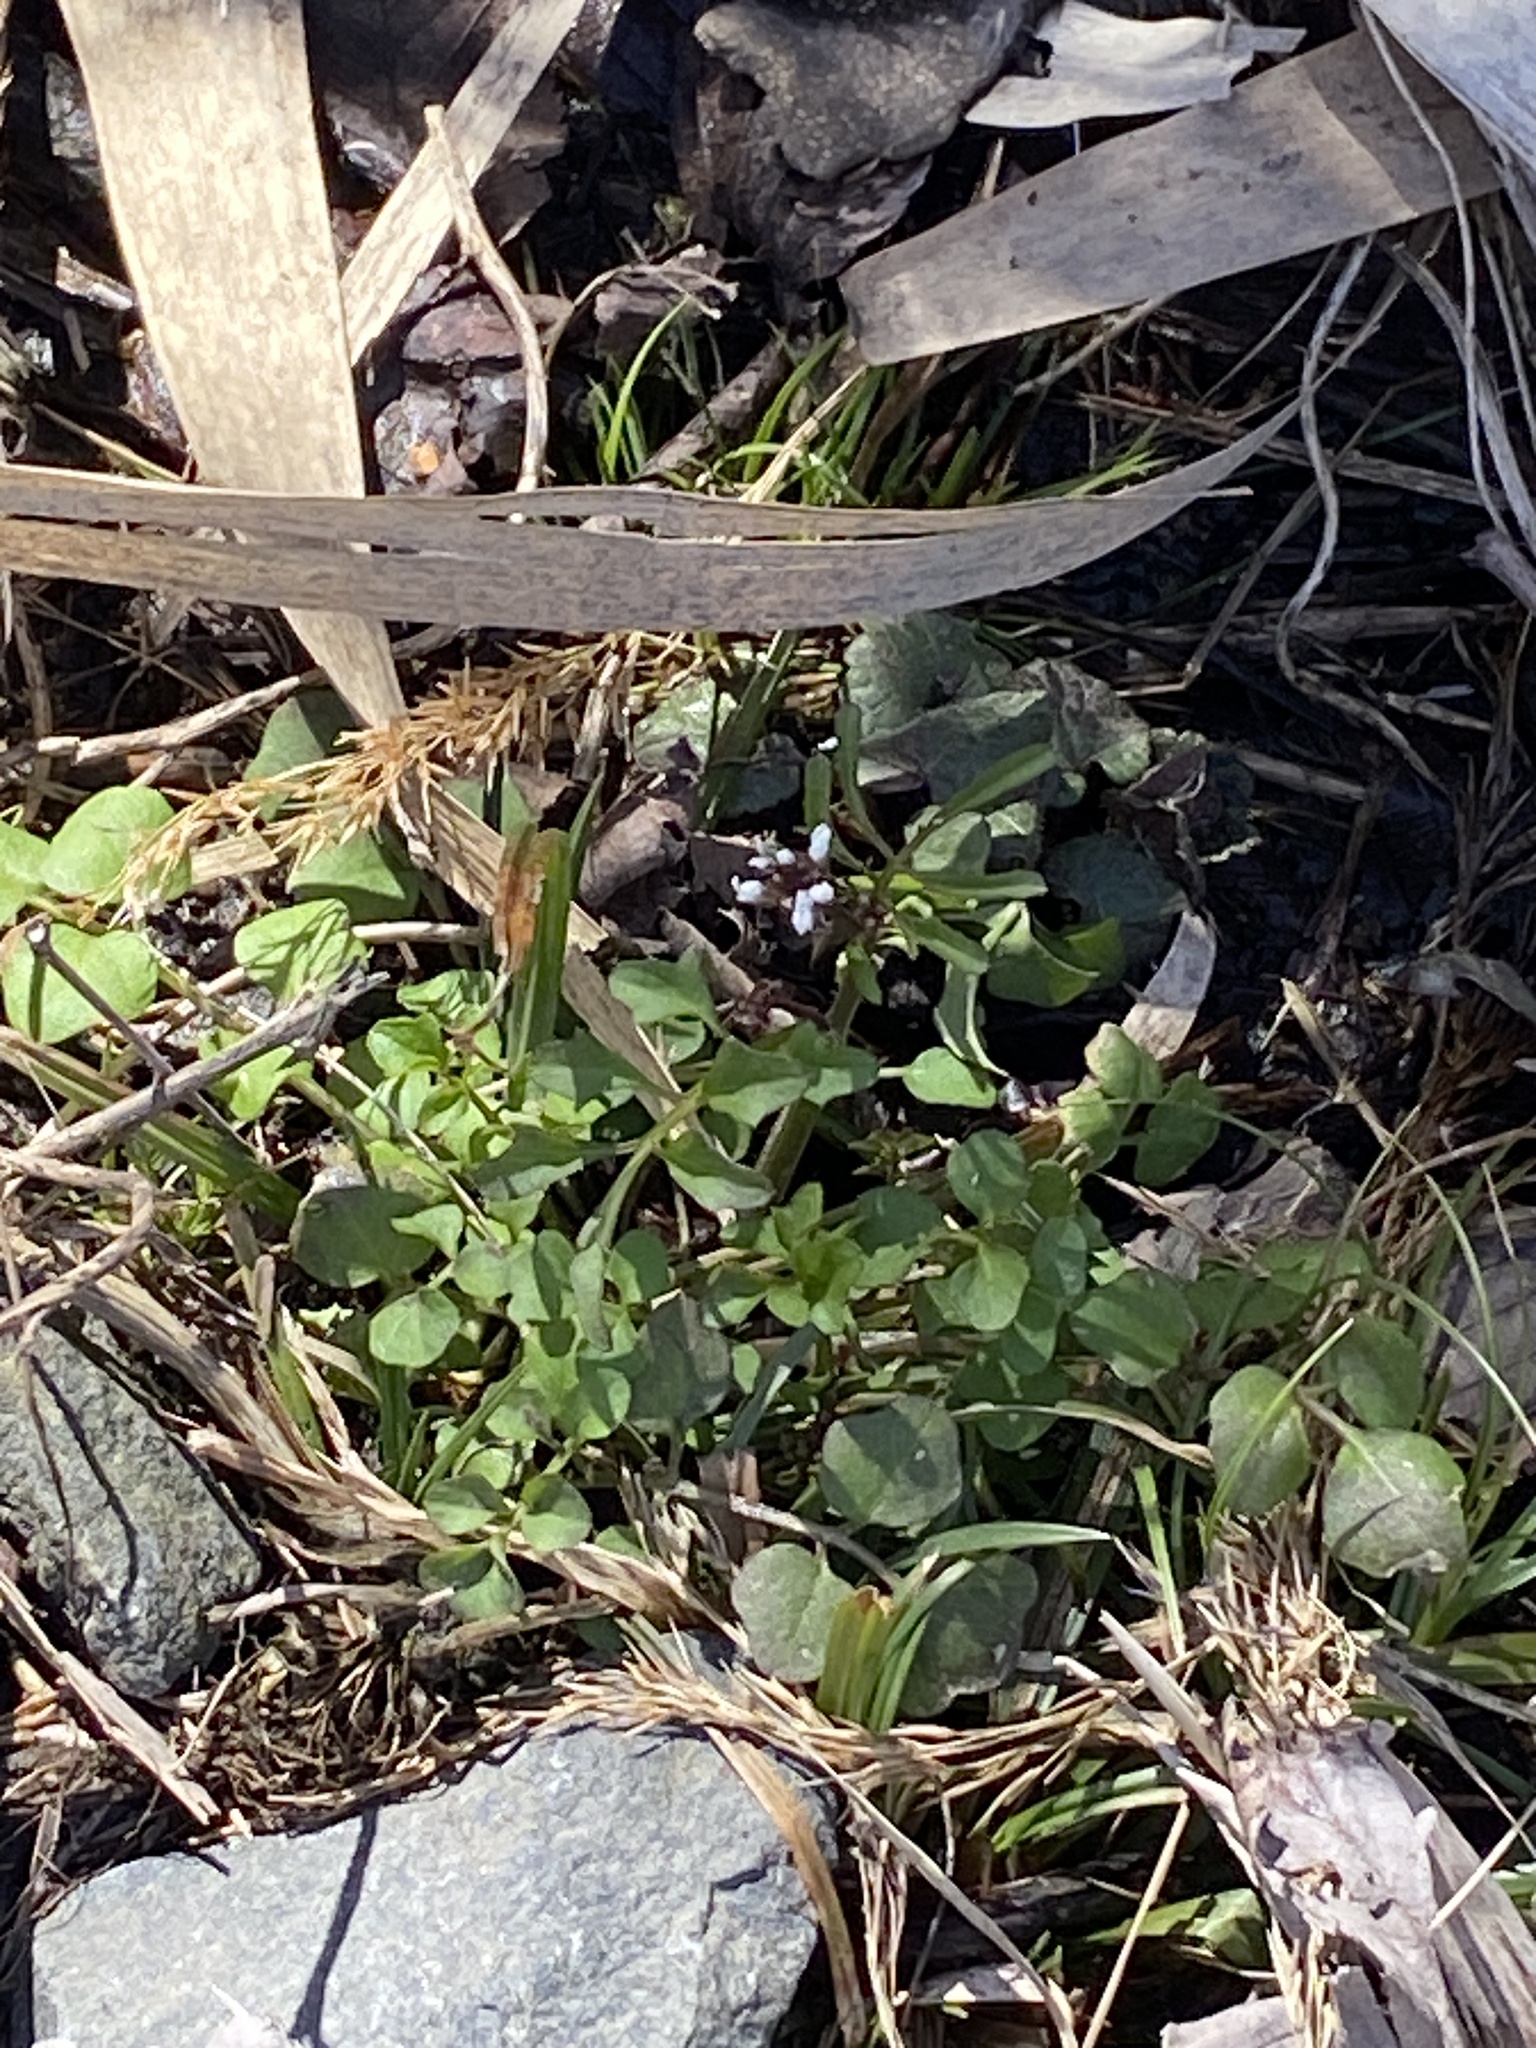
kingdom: Plantae
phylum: Tracheophyta
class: Magnoliopsida
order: Brassicales
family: Brassicaceae
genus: Cardamine
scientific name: Cardamine hirsuta
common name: Hairy bittercress
